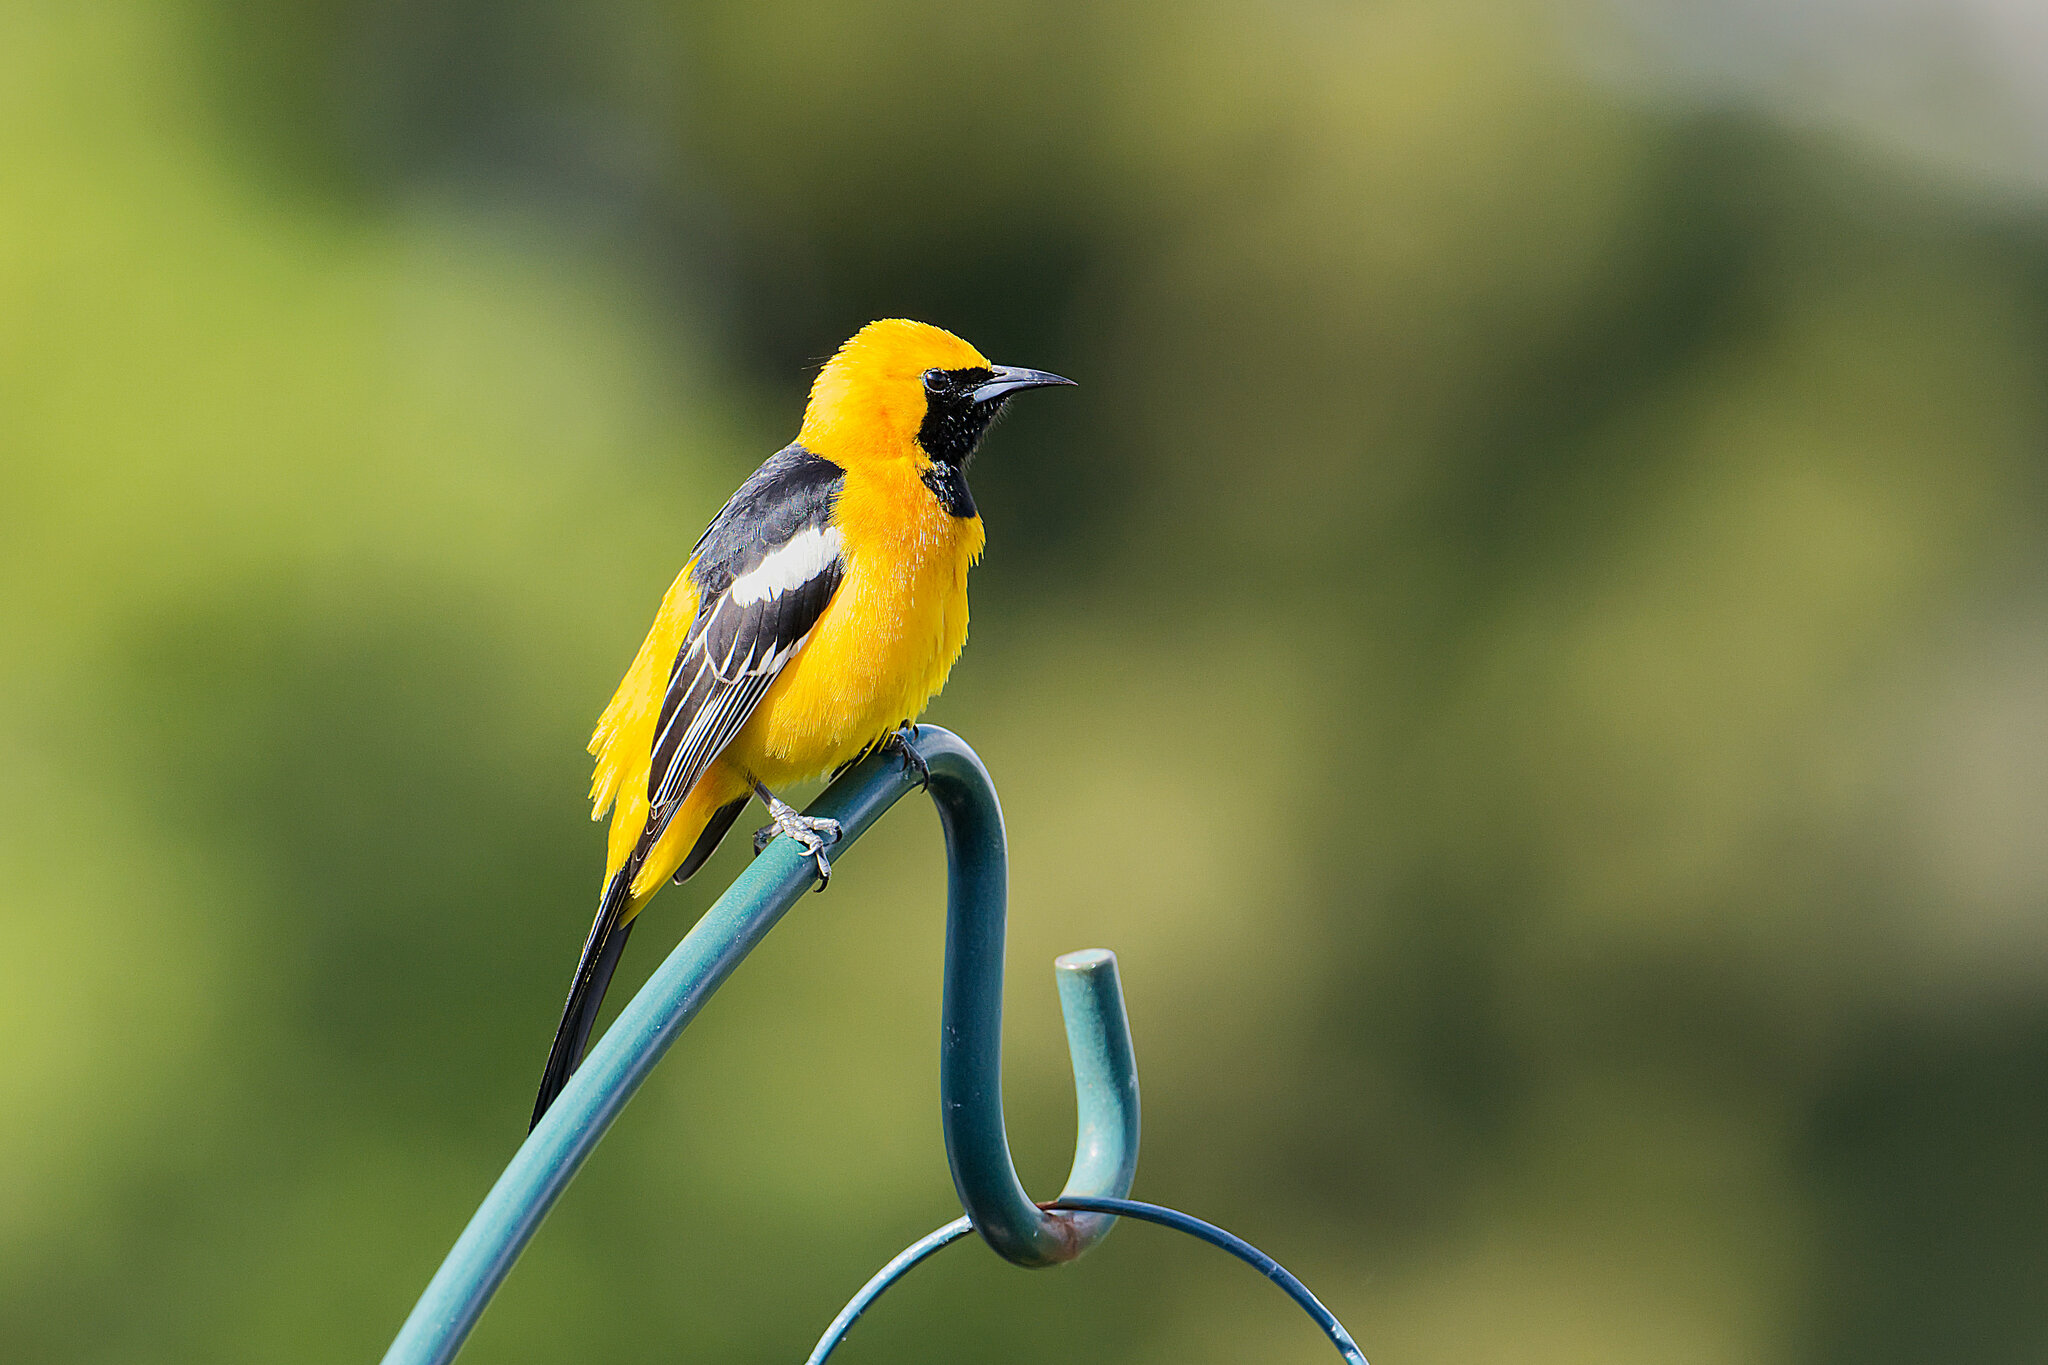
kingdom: Animalia
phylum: Chordata
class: Aves
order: Passeriformes
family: Icteridae
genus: Icterus
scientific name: Icterus cucullatus
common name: Hooded oriole
